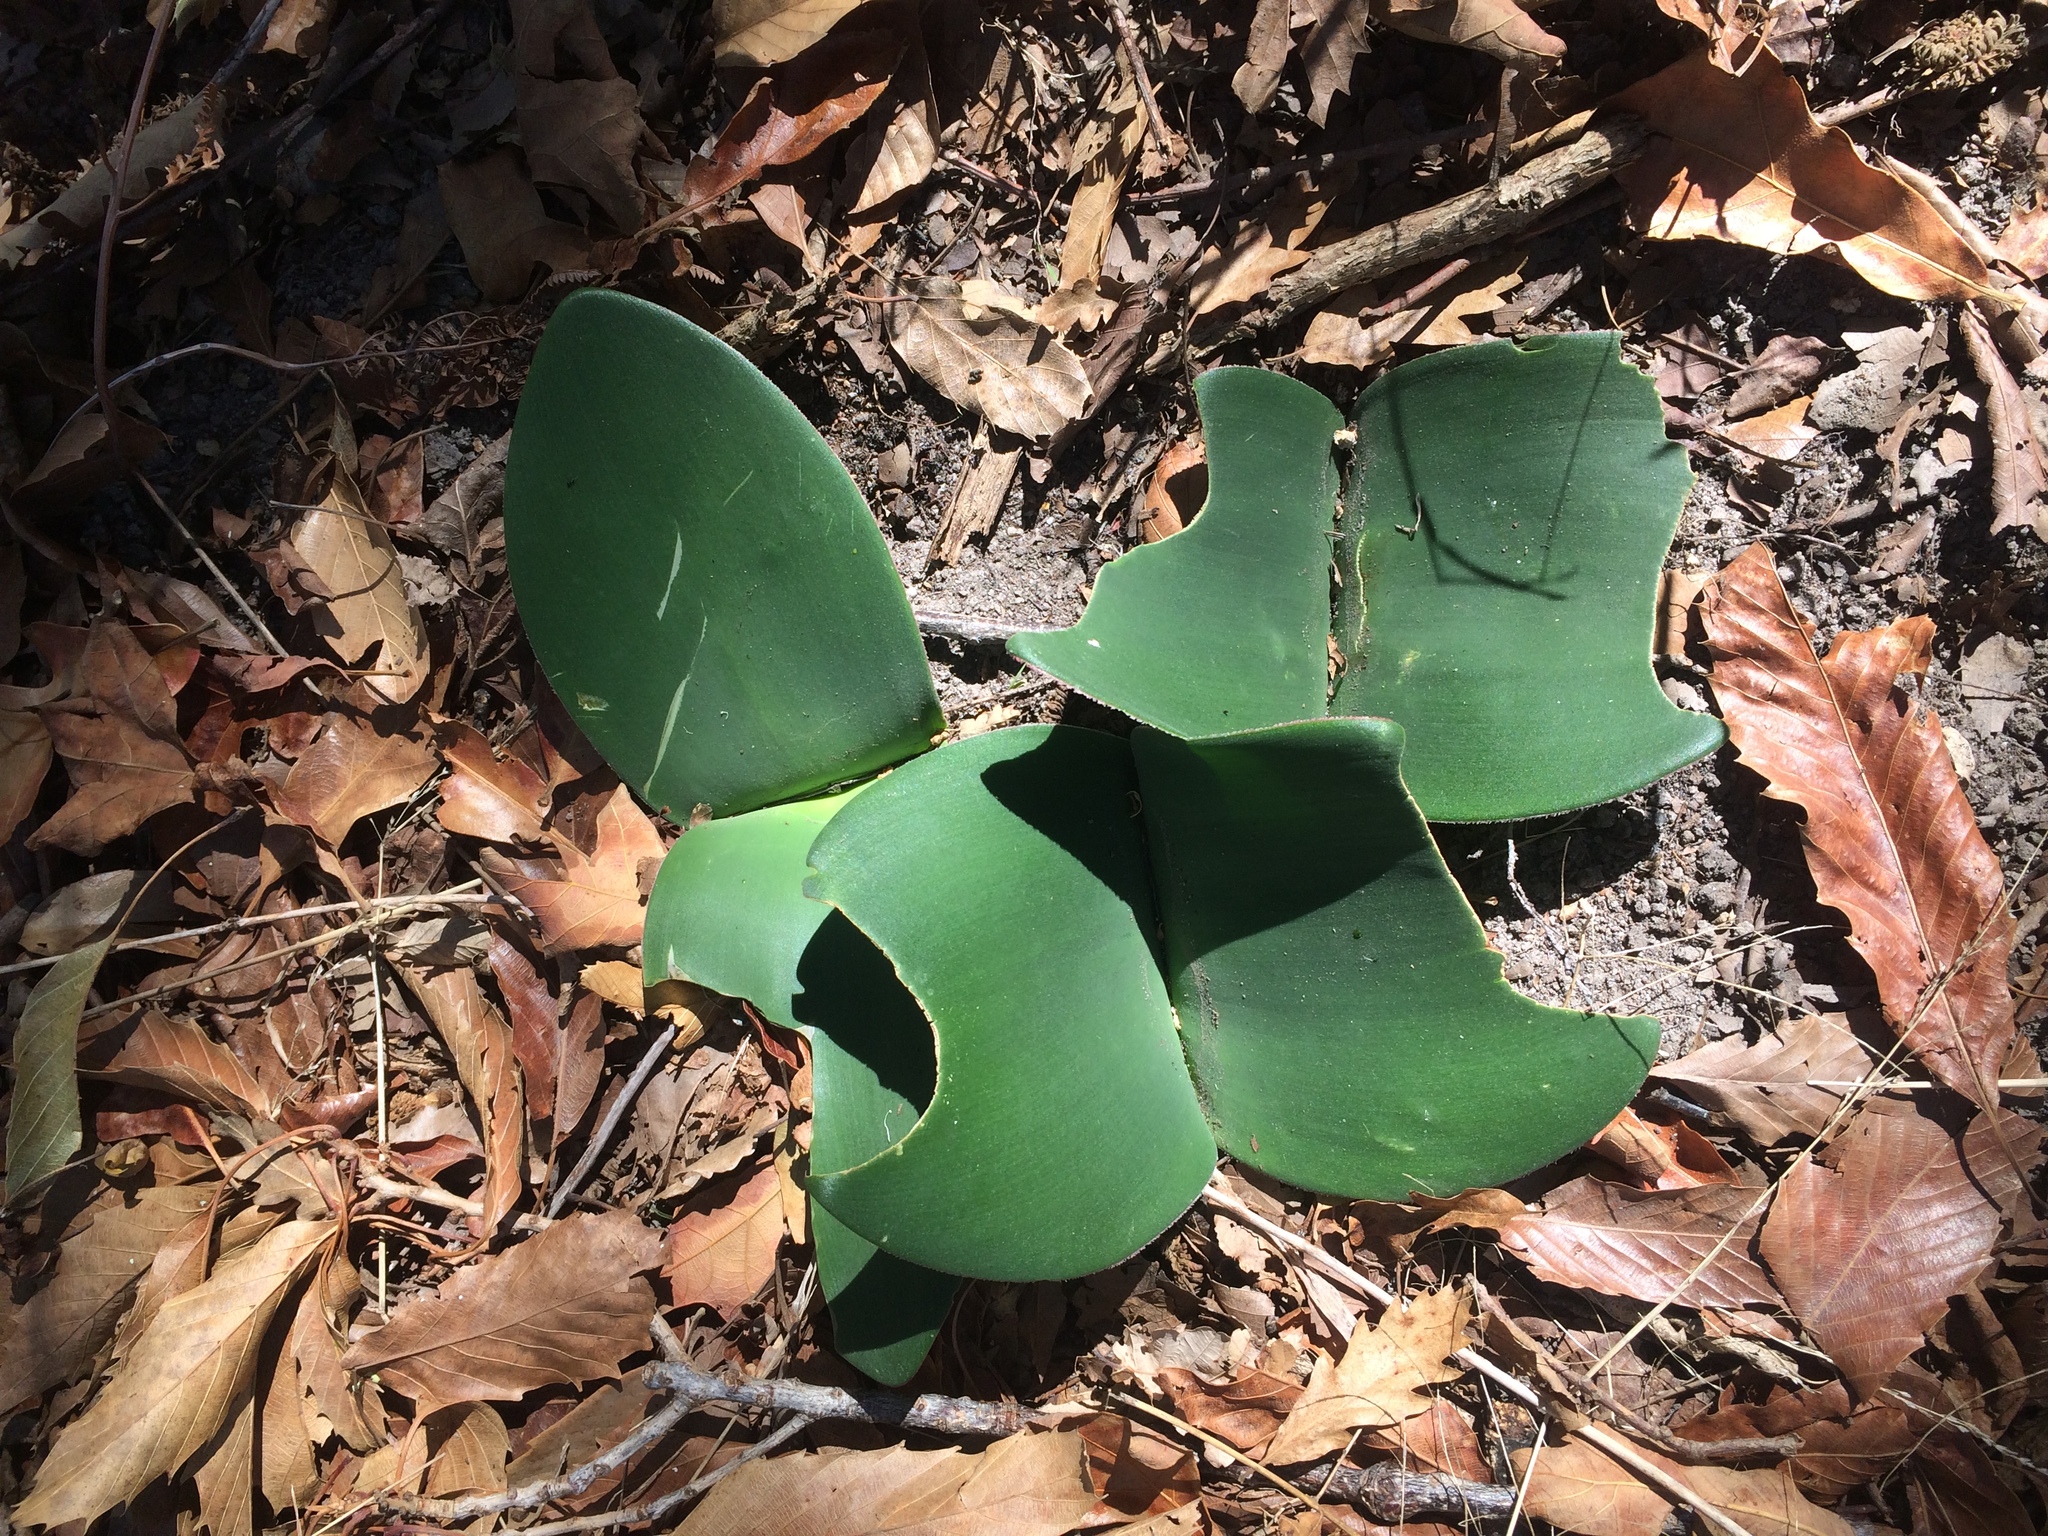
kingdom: Plantae
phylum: Tracheophyta
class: Liliopsida
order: Asparagales
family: Amaryllidaceae
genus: Haemanthus
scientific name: Haemanthus sanguineus
